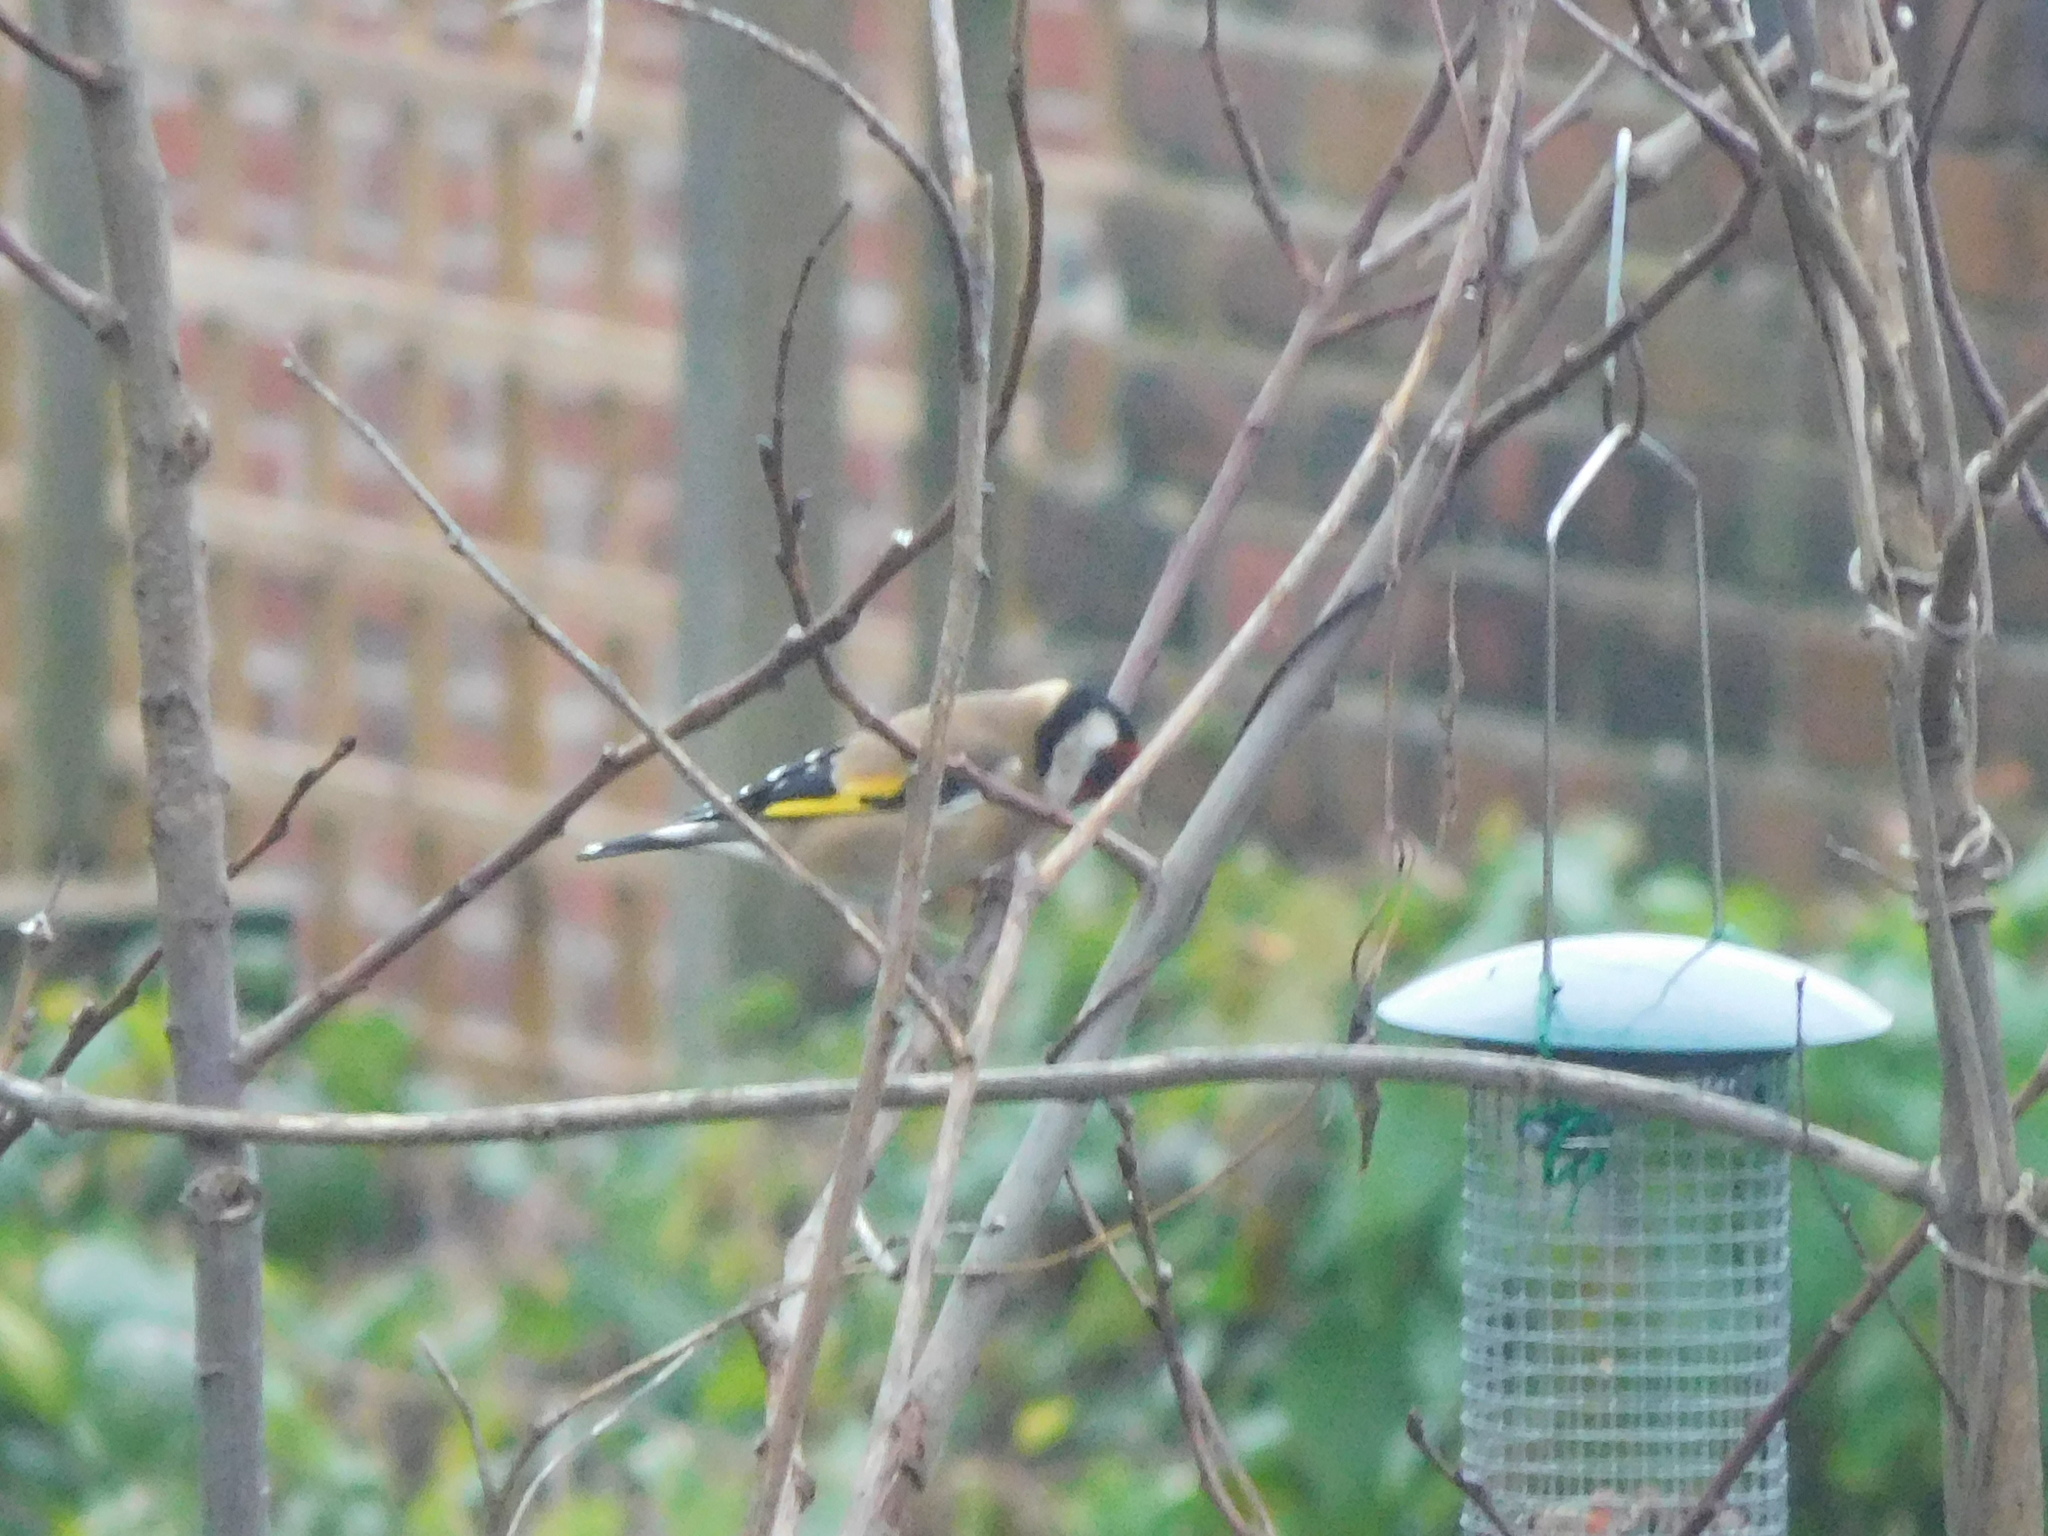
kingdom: Animalia
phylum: Chordata
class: Aves
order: Passeriformes
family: Fringillidae
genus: Carduelis
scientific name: Carduelis carduelis
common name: European goldfinch
